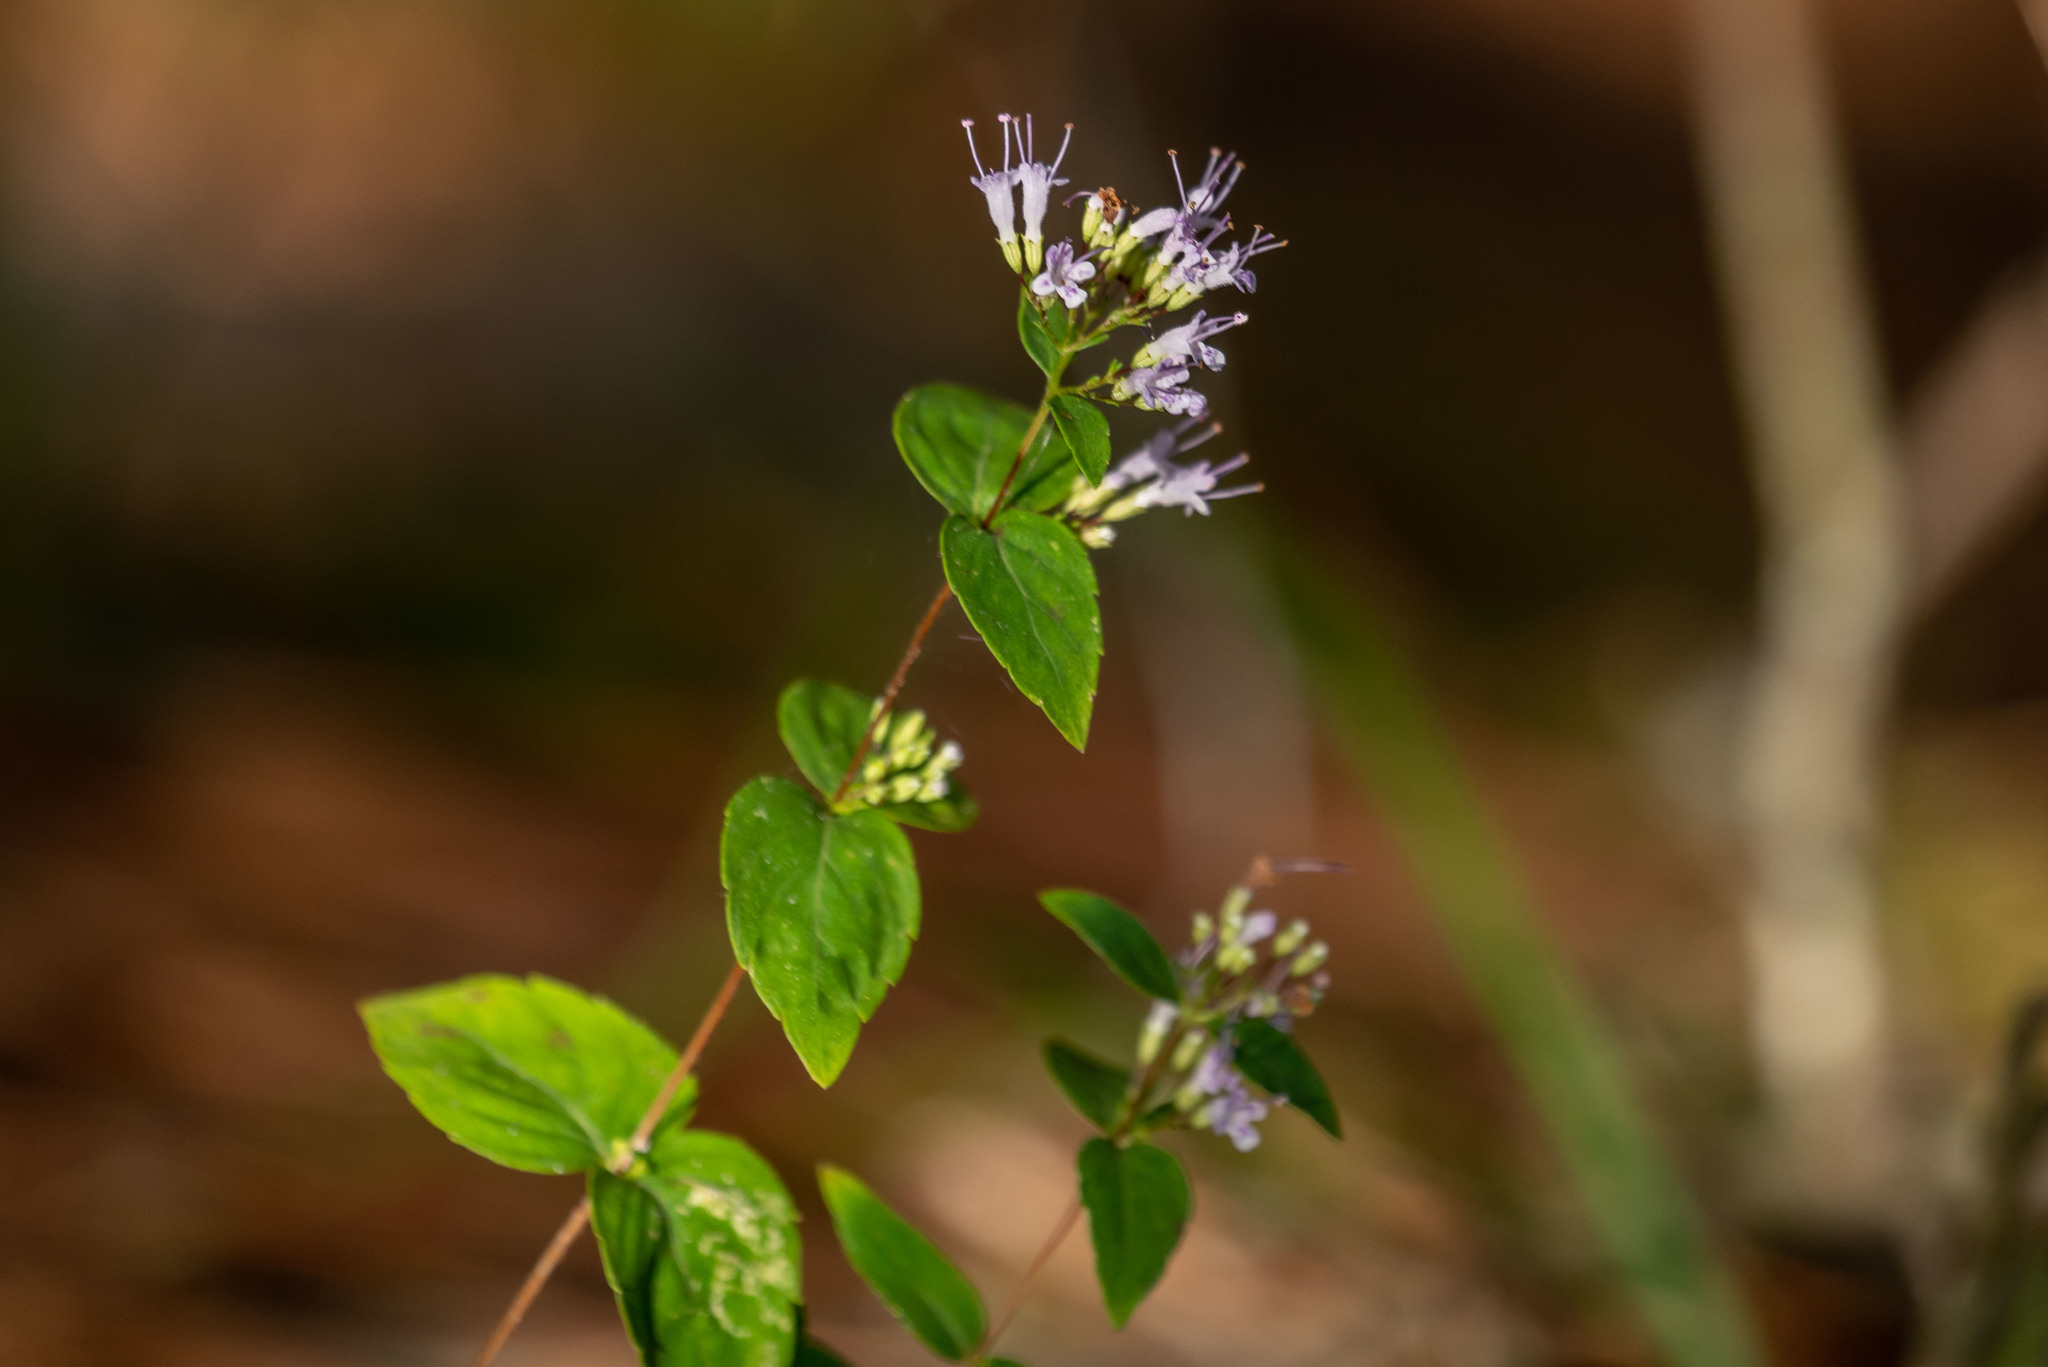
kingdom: Plantae
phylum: Tracheophyta
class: Magnoliopsida
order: Lamiales
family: Lamiaceae
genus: Cunila
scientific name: Cunila origanoides
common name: American dittany
